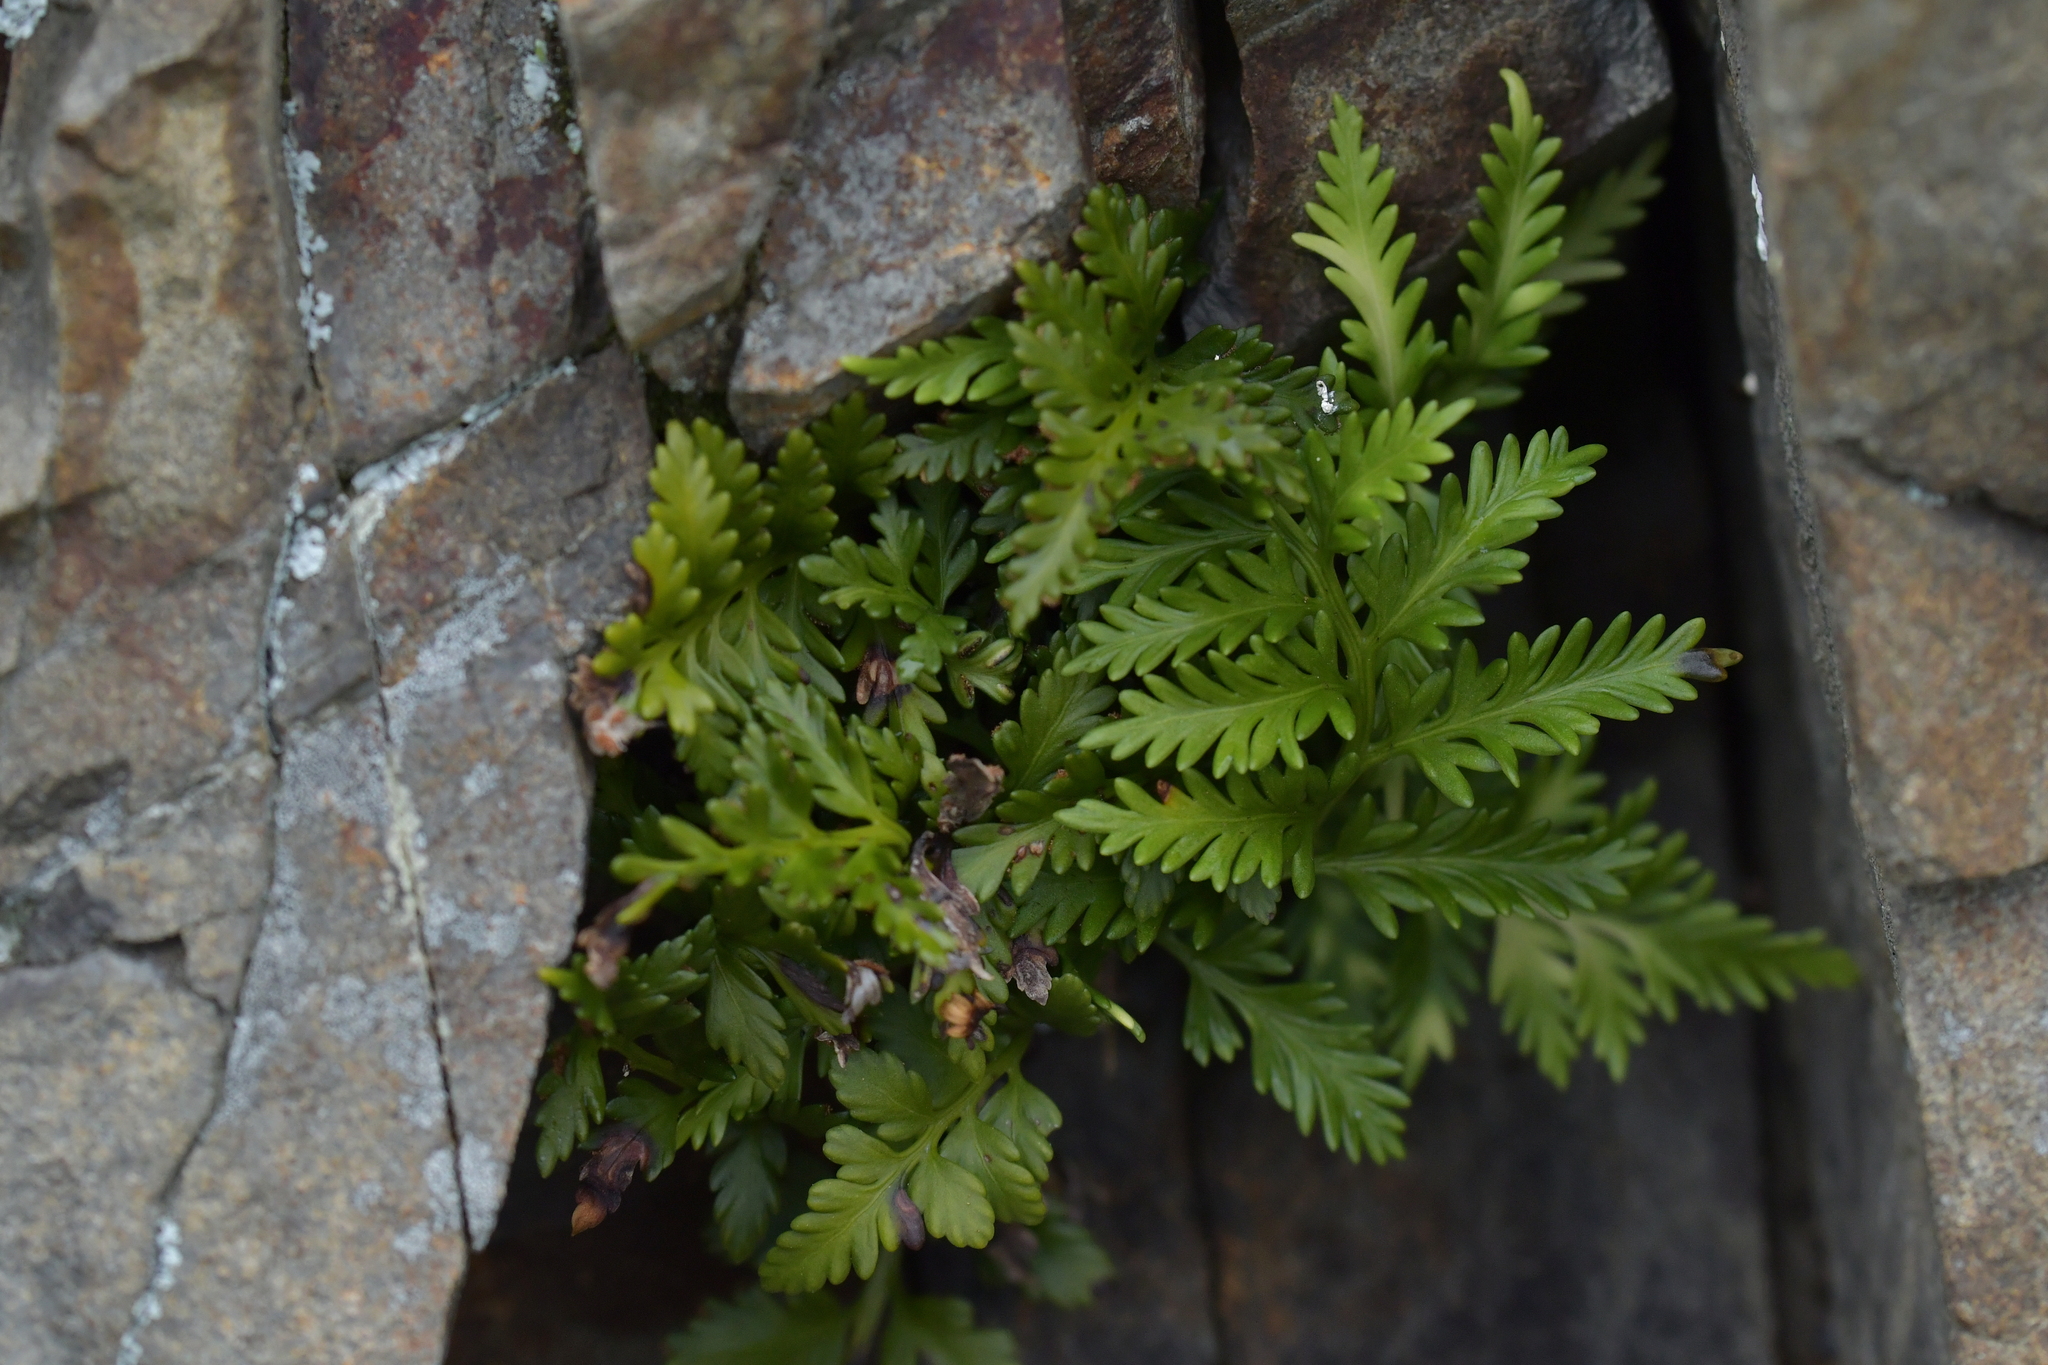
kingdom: Plantae
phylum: Tracheophyta
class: Polypodiopsida
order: Polypodiales
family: Aspleniaceae
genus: Asplenium
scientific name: Asplenium appendiculatum
